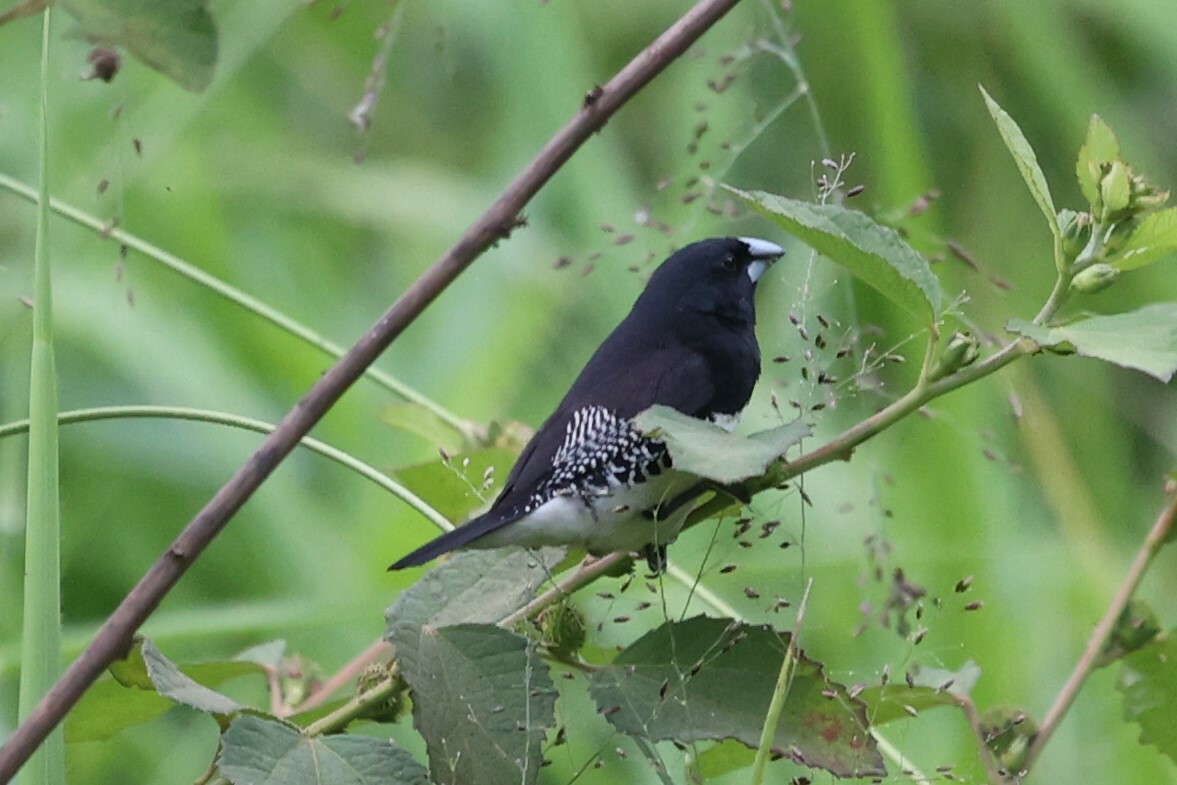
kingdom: Animalia
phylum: Chordata
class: Aves
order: Passeriformes
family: Estrildidae
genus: Lonchura
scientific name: Lonchura bicolor
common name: Black-and-white mannikin
